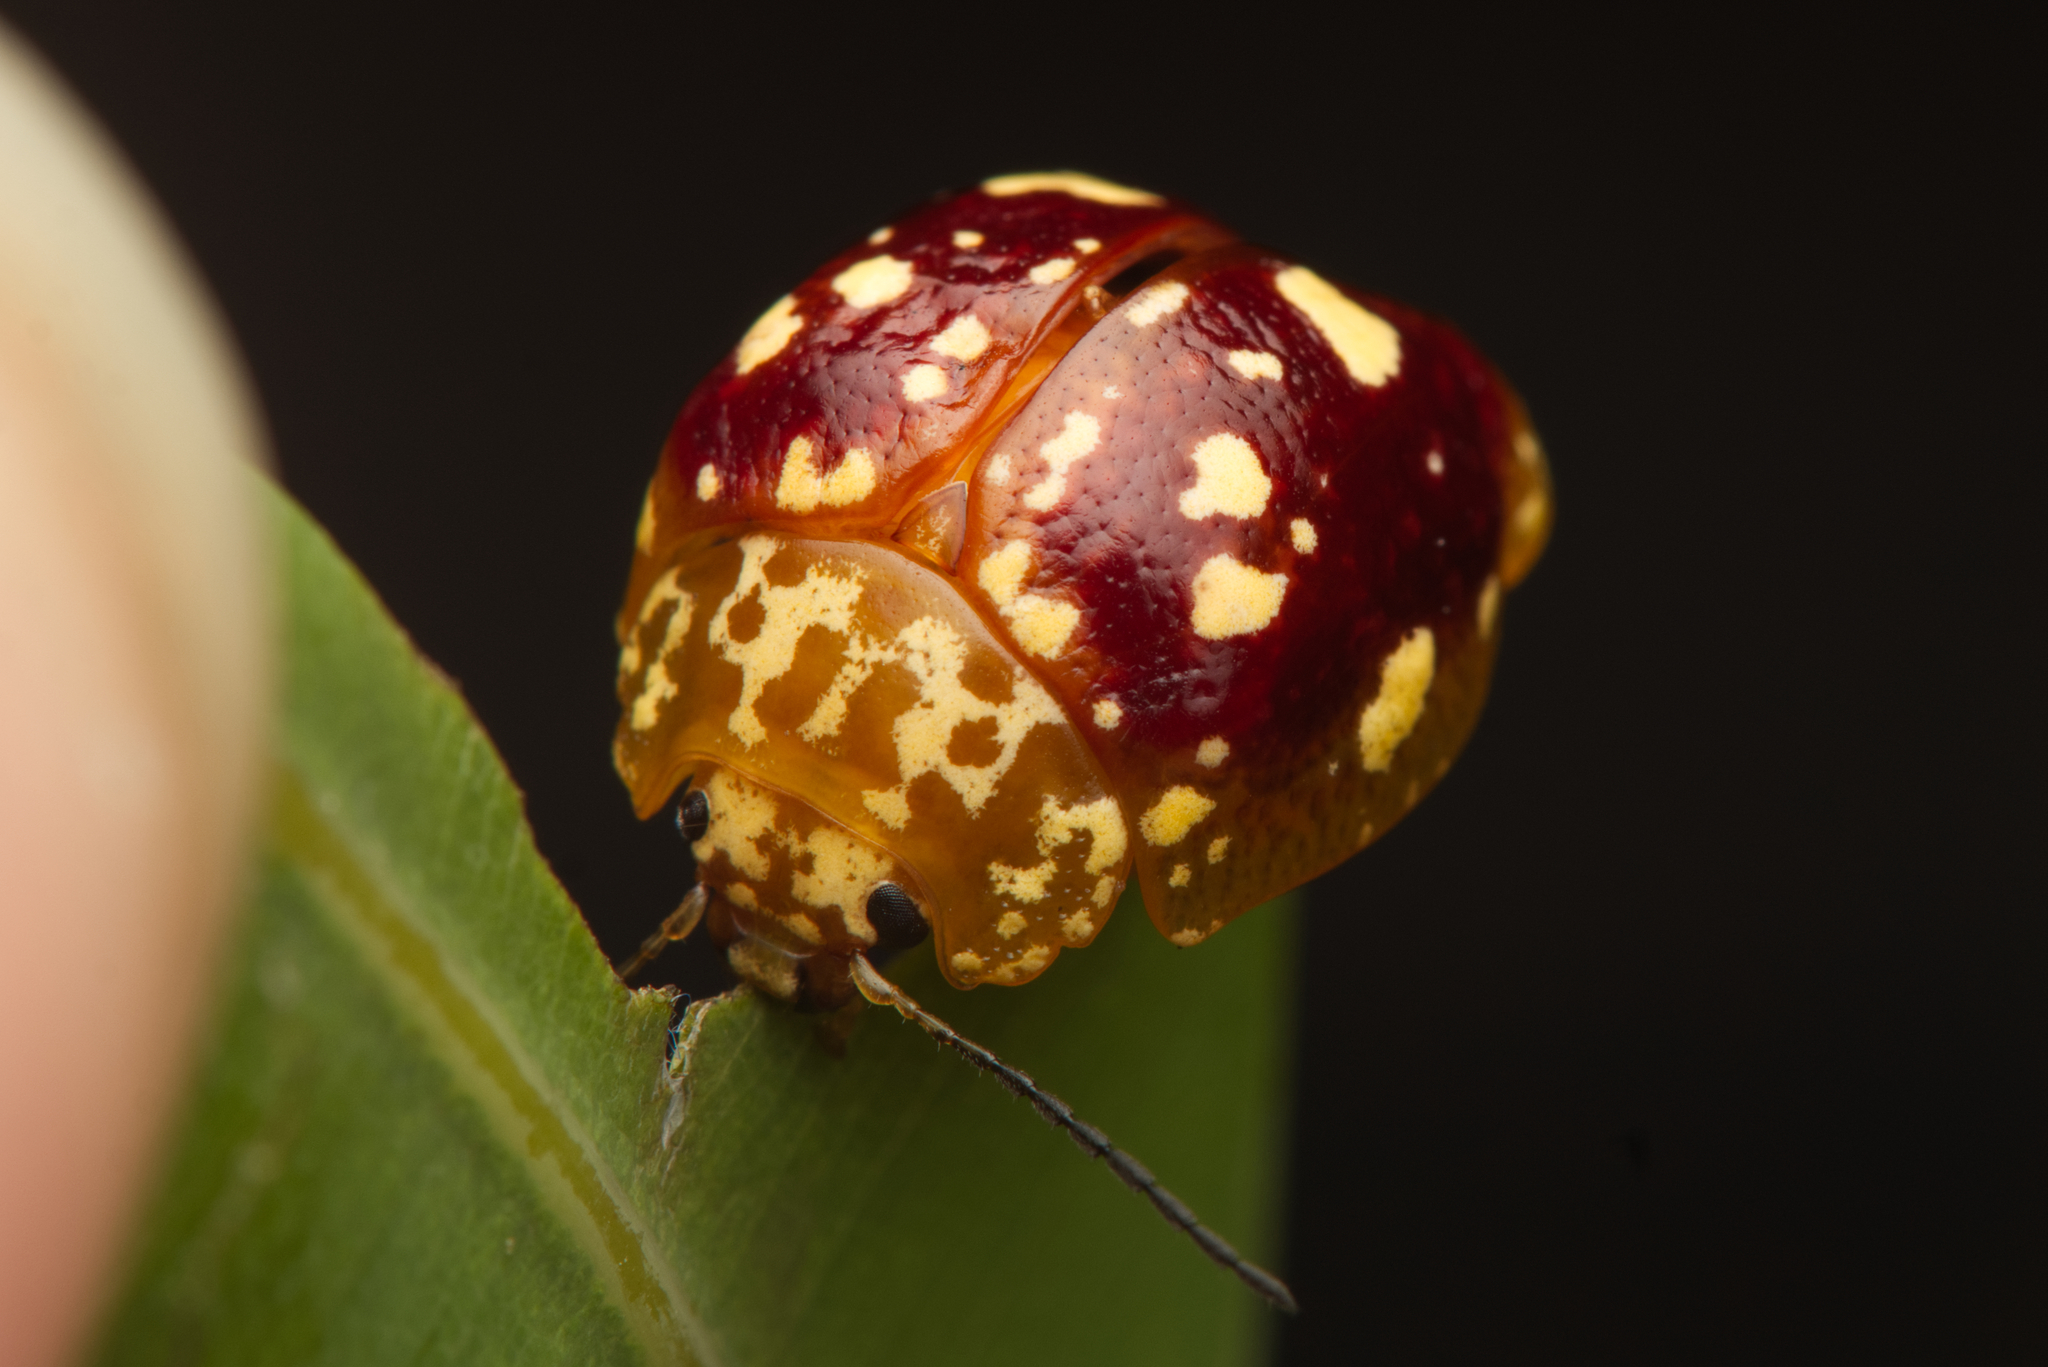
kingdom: Animalia
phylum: Arthropoda
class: Insecta
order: Coleoptera
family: Chrysomelidae
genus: Paropsis
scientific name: Paropsis maculata
